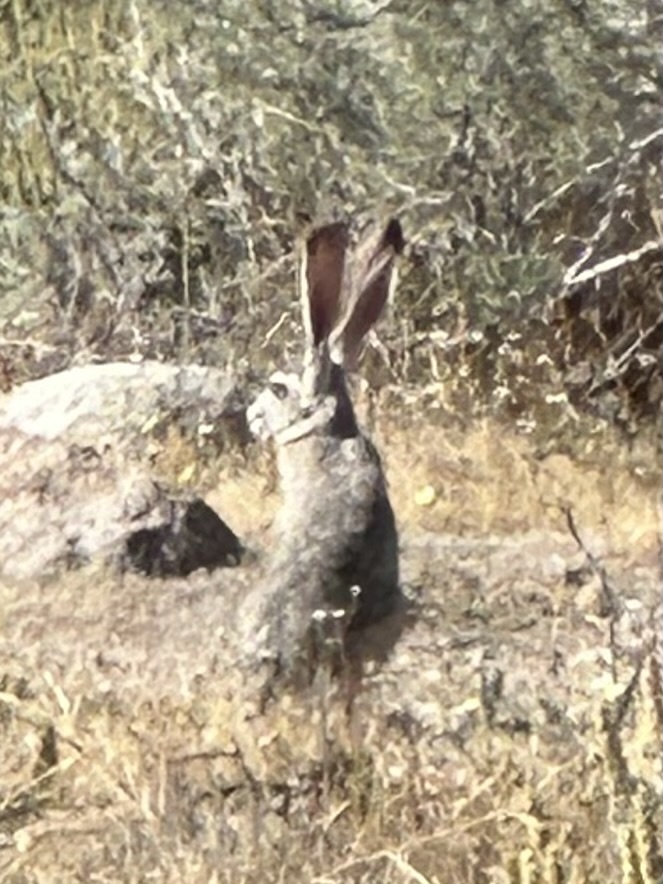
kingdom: Animalia
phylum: Chordata
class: Mammalia
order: Lagomorpha
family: Leporidae
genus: Lepus
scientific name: Lepus californicus
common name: Black-tailed jackrabbit
